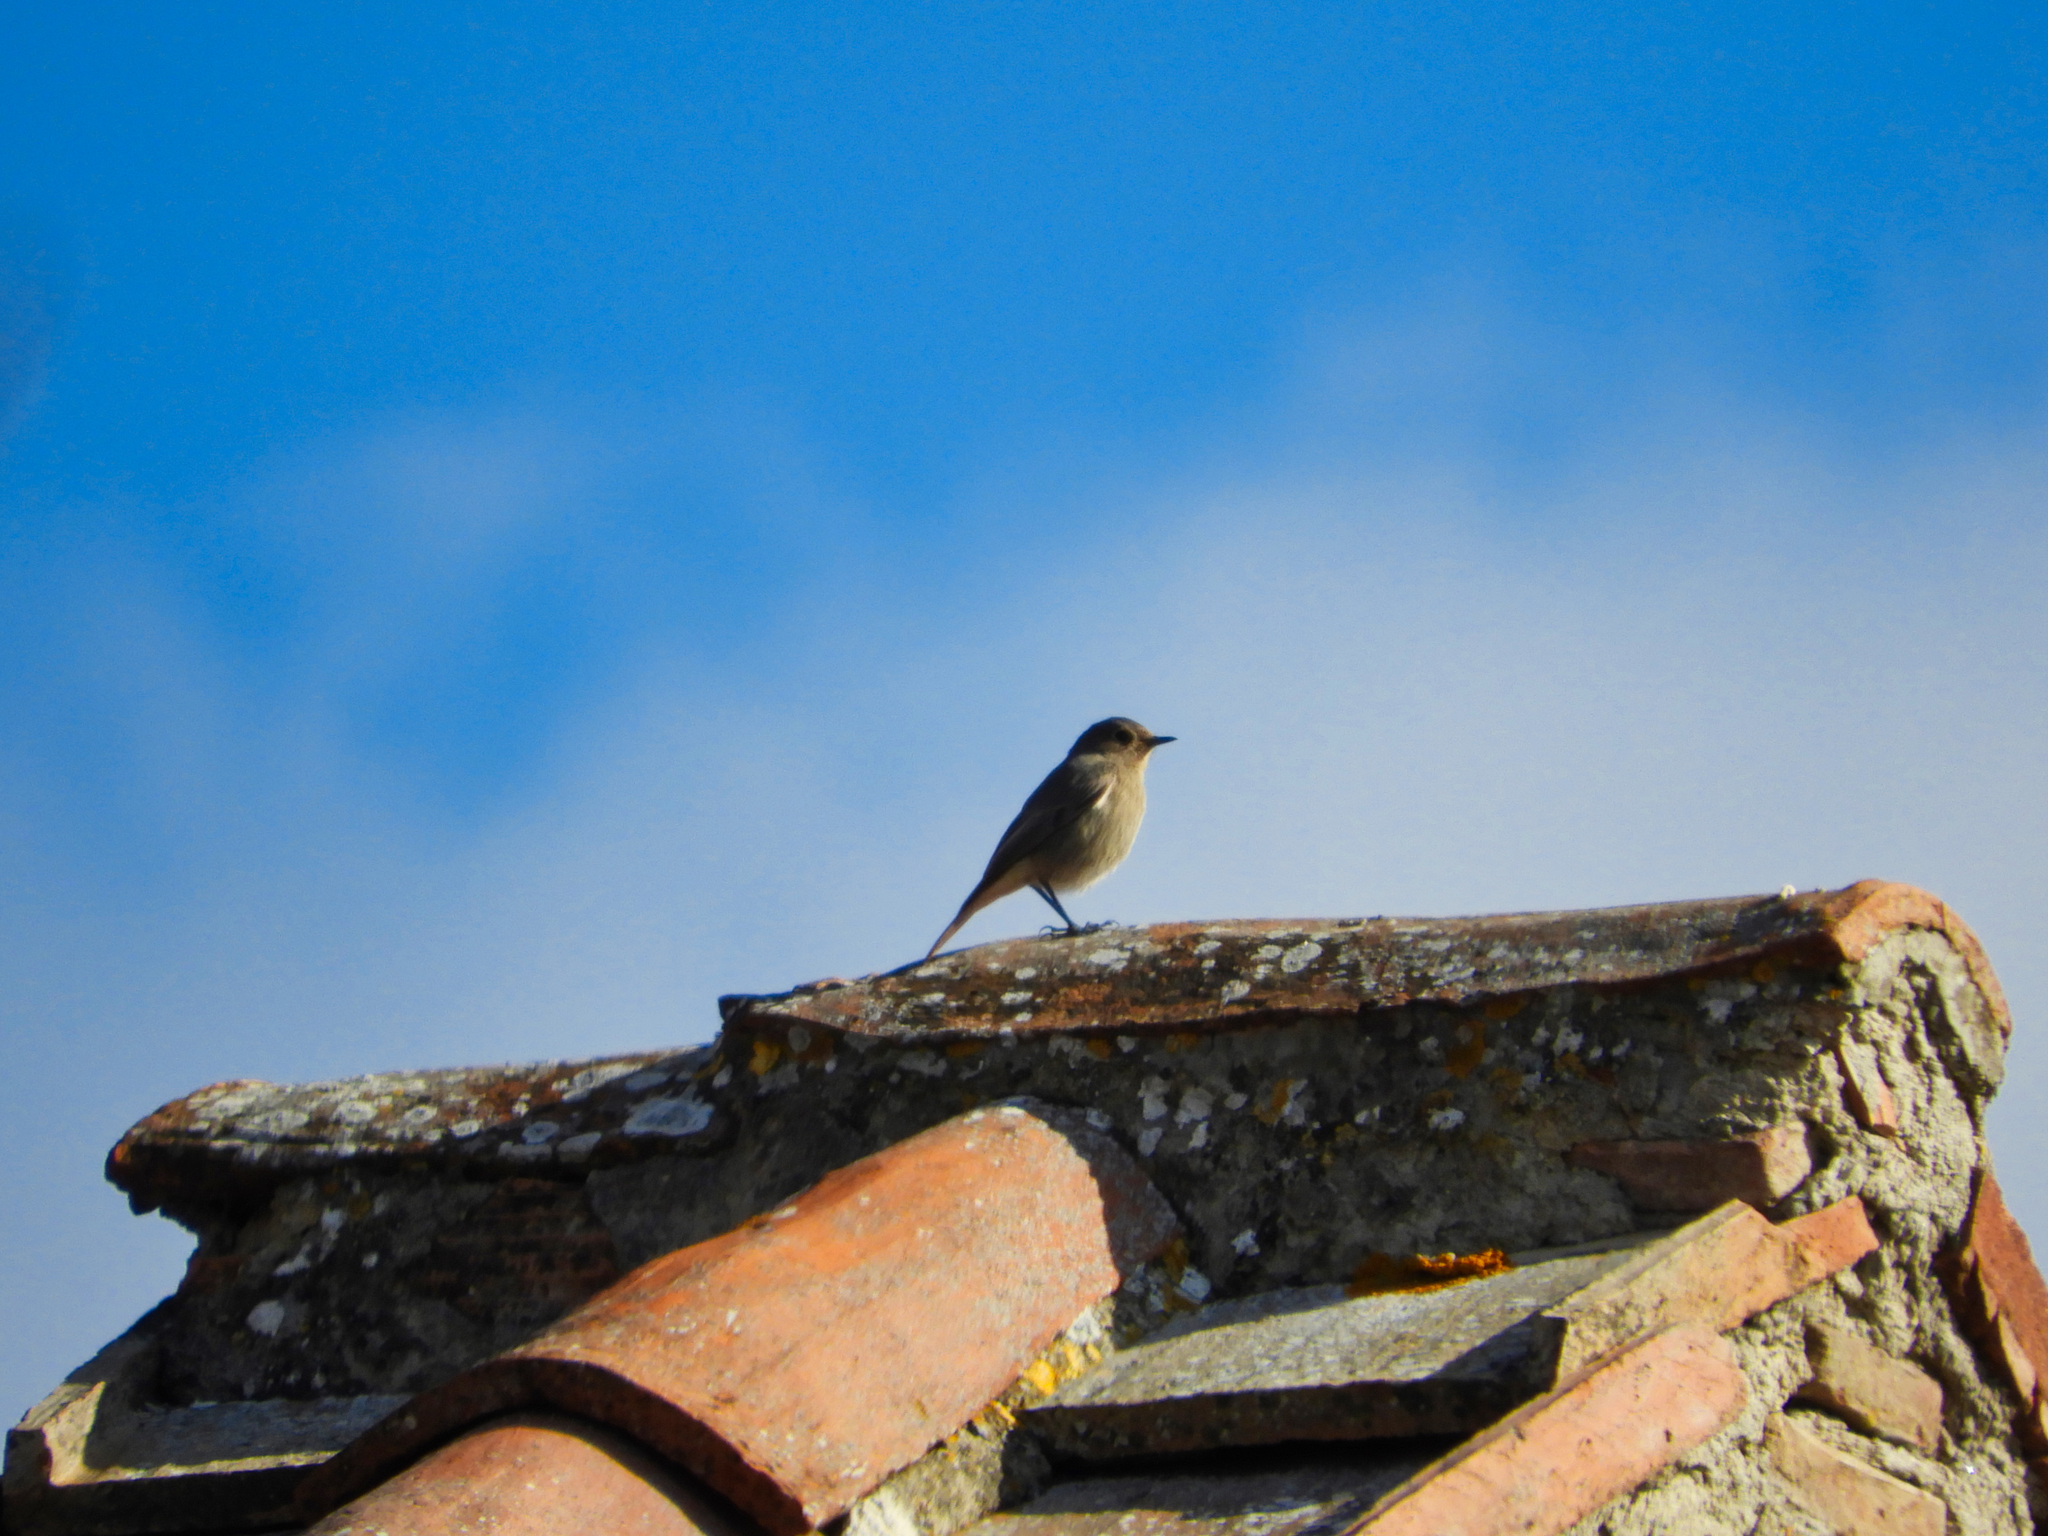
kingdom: Animalia
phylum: Chordata
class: Aves
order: Passeriformes
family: Muscicapidae
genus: Phoenicurus
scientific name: Phoenicurus ochruros
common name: Black redstart
